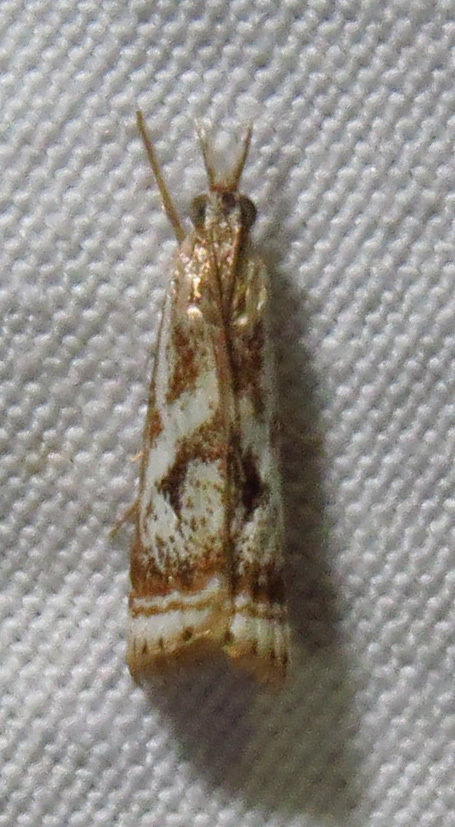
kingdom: Animalia
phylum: Arthropoda
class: Insecta
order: Lepidoptera
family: Crambidae
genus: Microcrambus
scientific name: Microcrambus elegans
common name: Elegant grass-veneer
